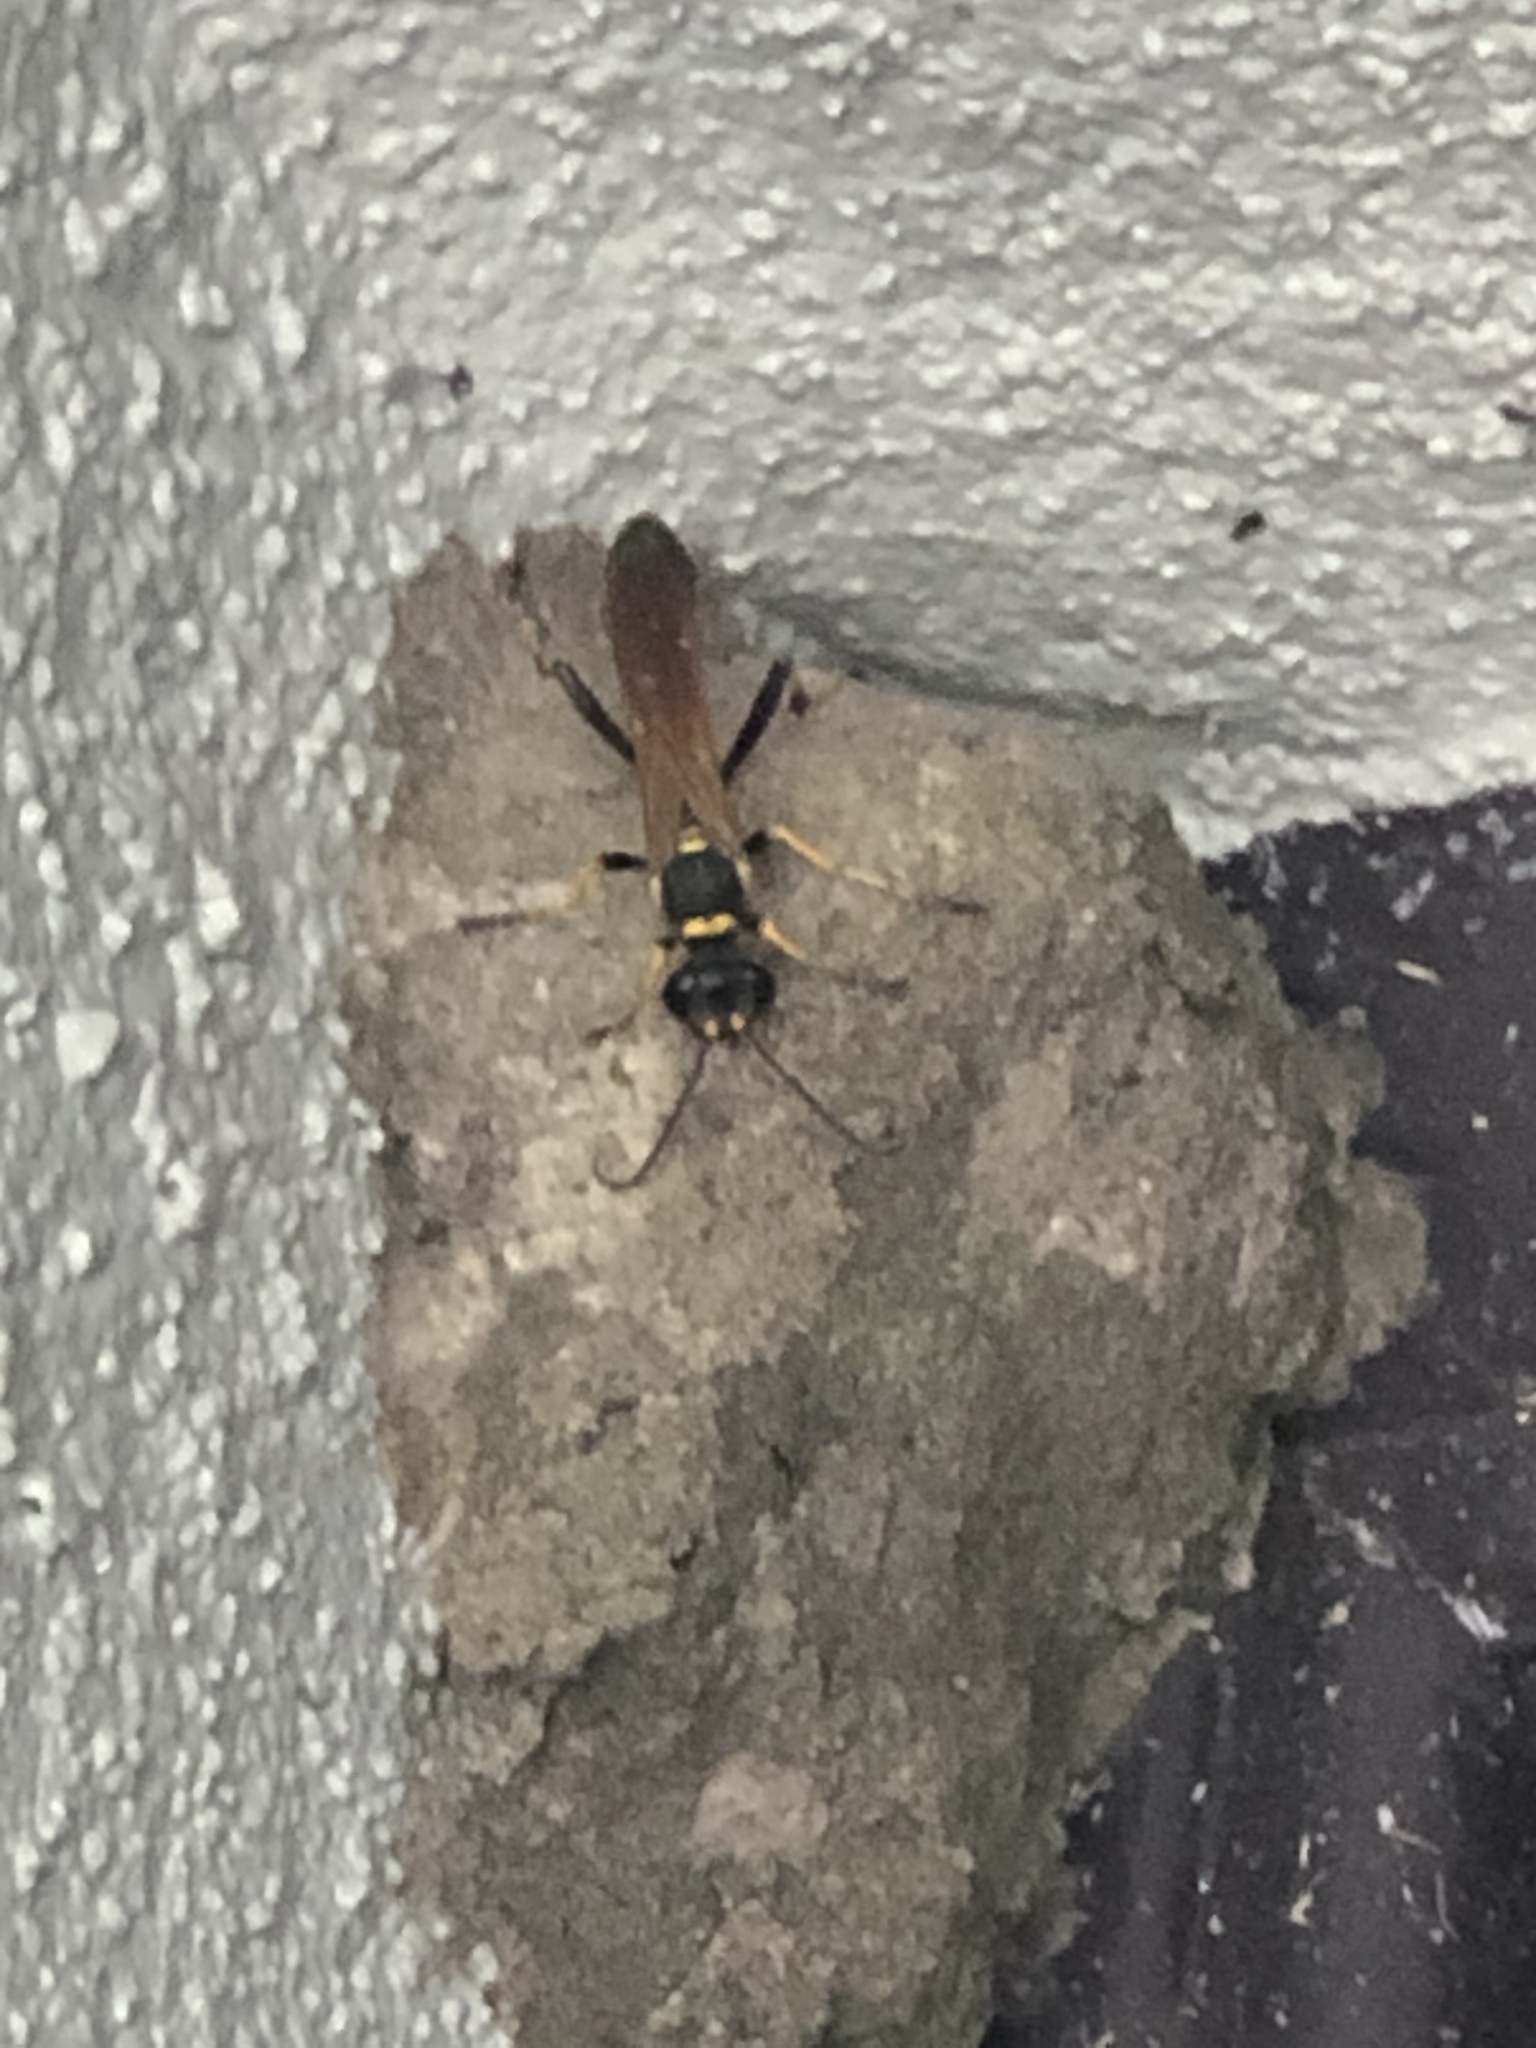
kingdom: Animalia
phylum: Arthropoda
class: Insecta
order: Hymenoptera
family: Sphecidae
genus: Sceliphron
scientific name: Sceliphron caementarium
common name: Mud dauber
